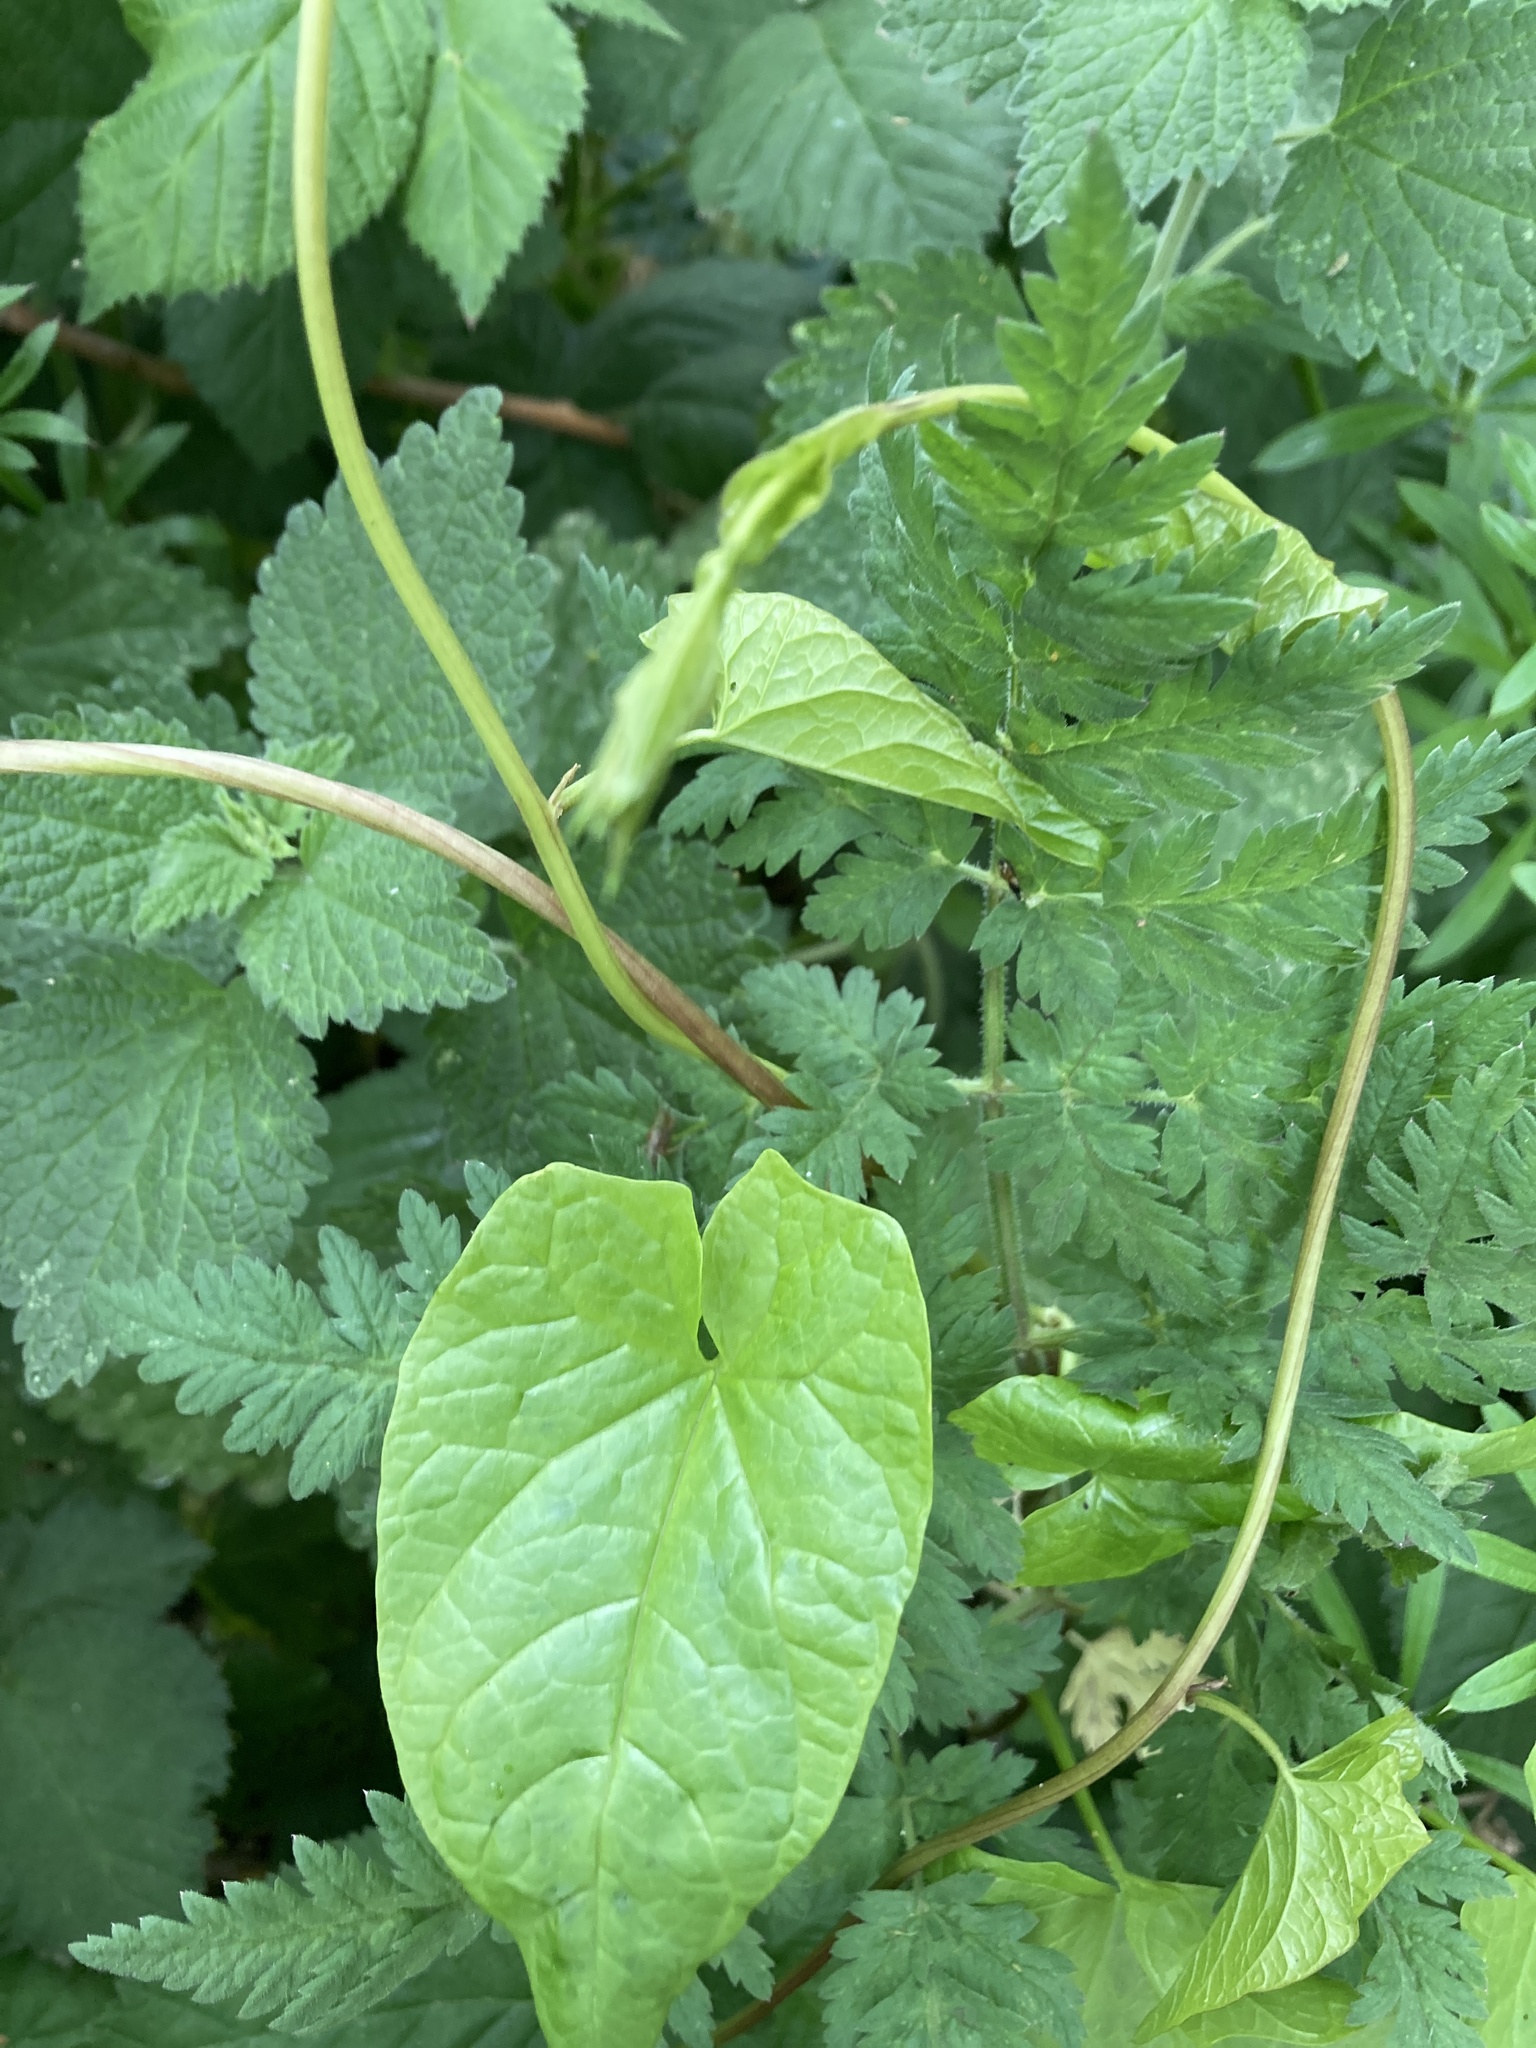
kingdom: Plantae
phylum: Tracheophyta
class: Magnoliopsida
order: Solanales
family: Convolvulaceae
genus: Calystegia
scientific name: Calystegia silvatica
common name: Large bindweed
